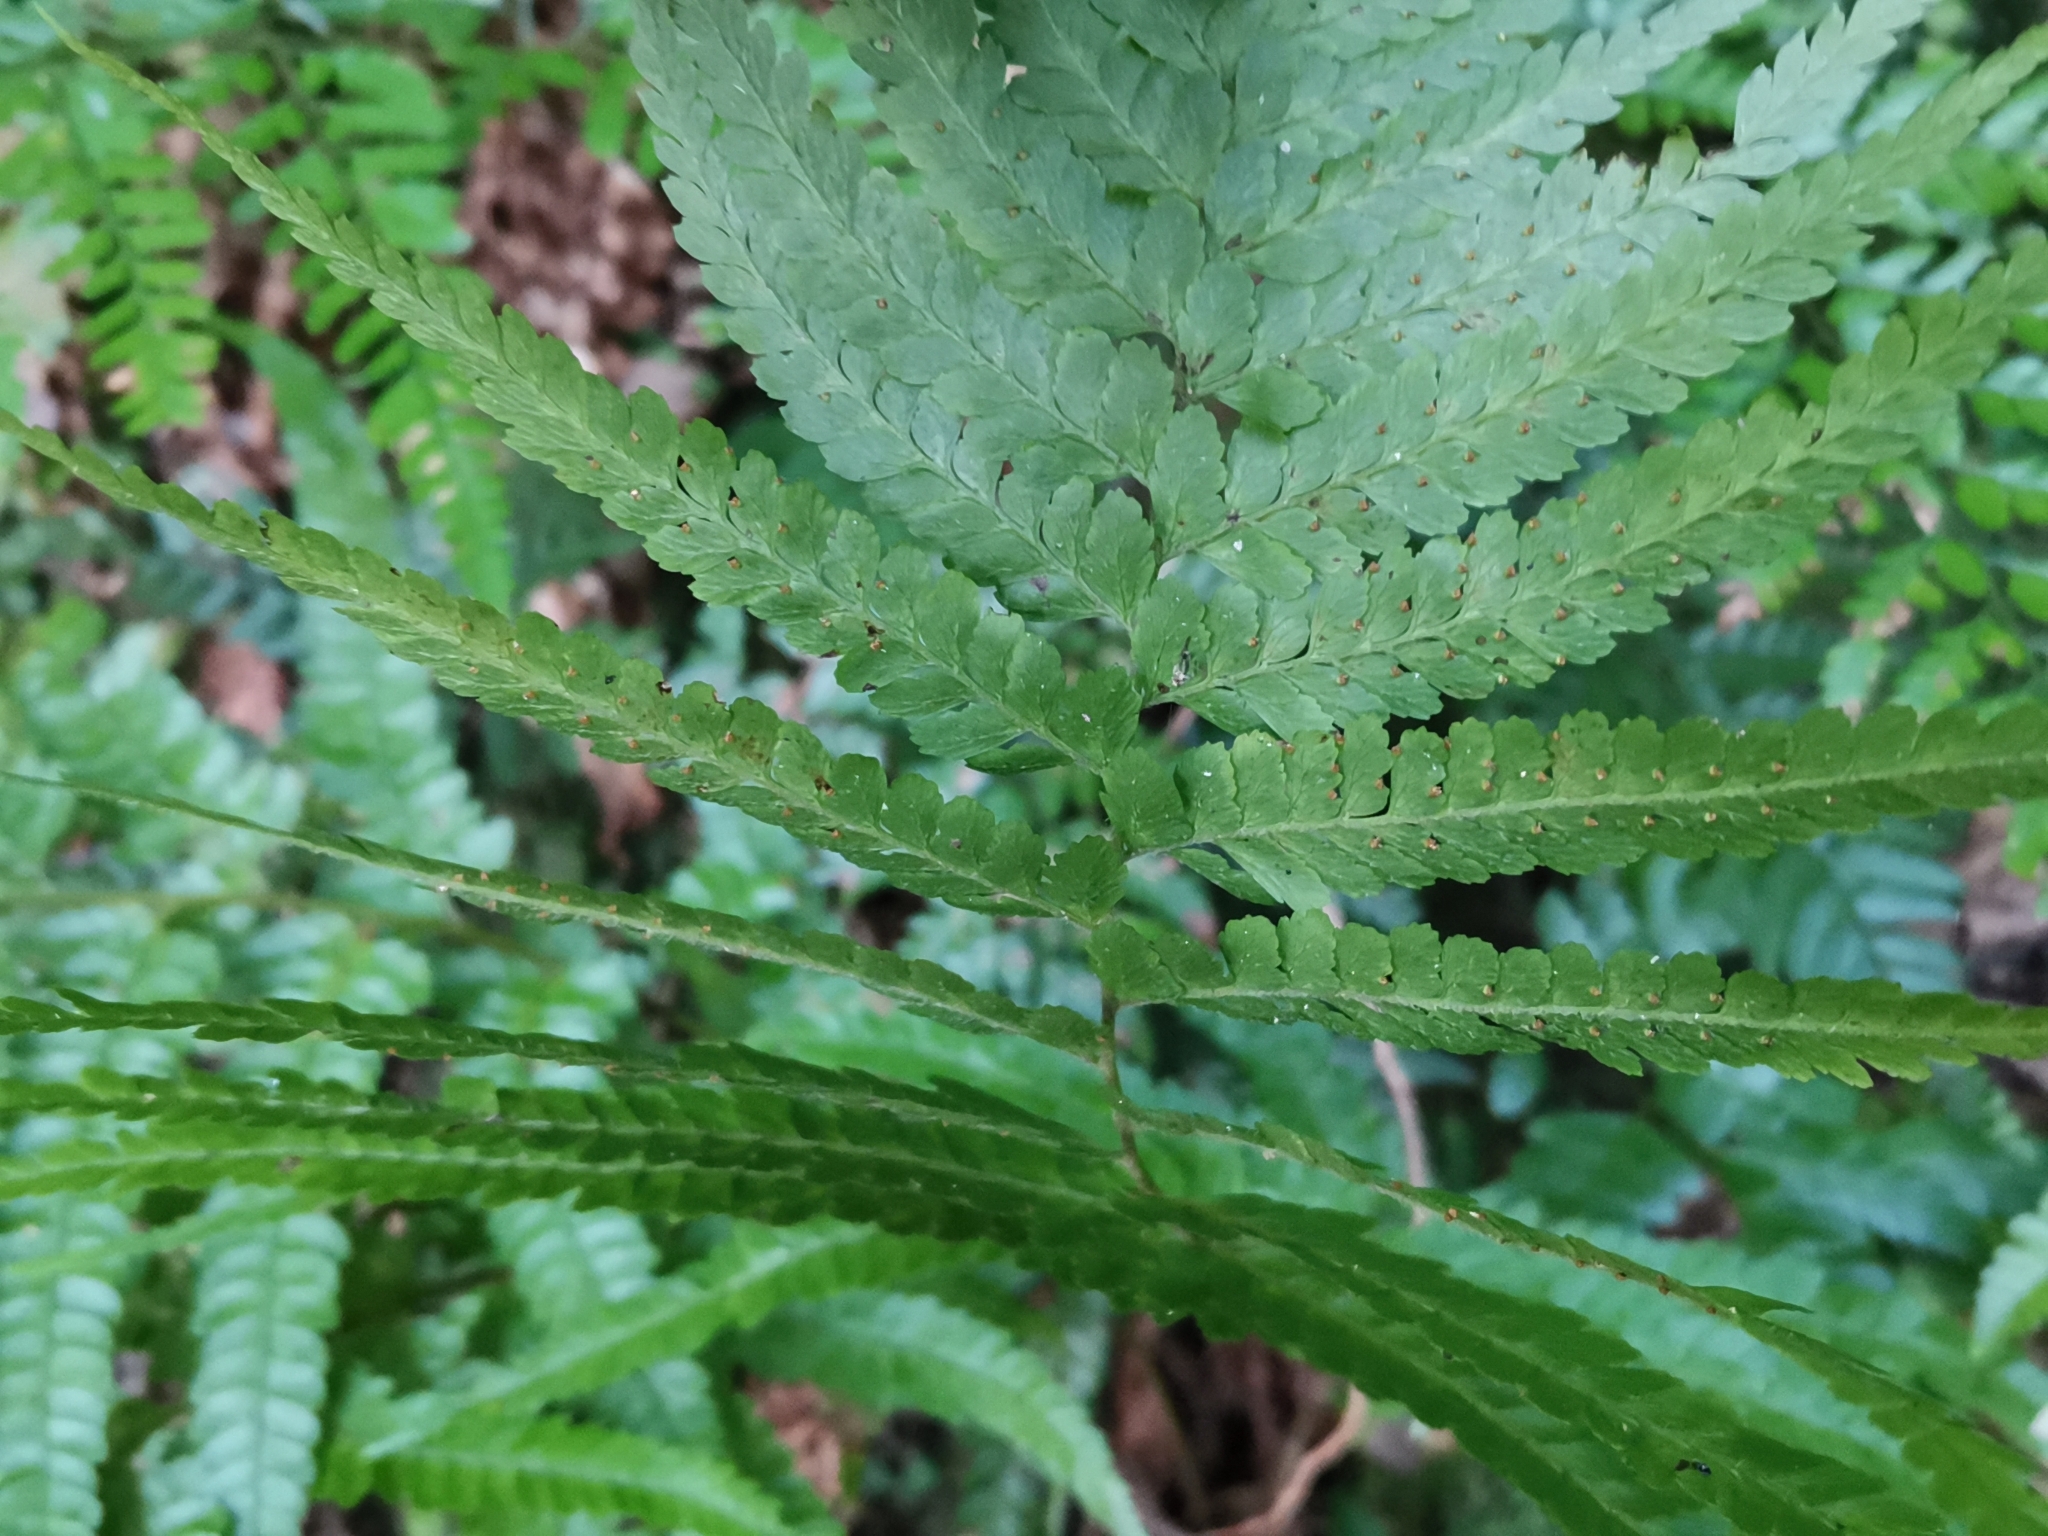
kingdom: Plantae
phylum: Tracheophyta
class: Polypodiopsida
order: Polypodiales
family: Dennstaedtiaceae
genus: Microlepia
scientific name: Microlepia strigosa
